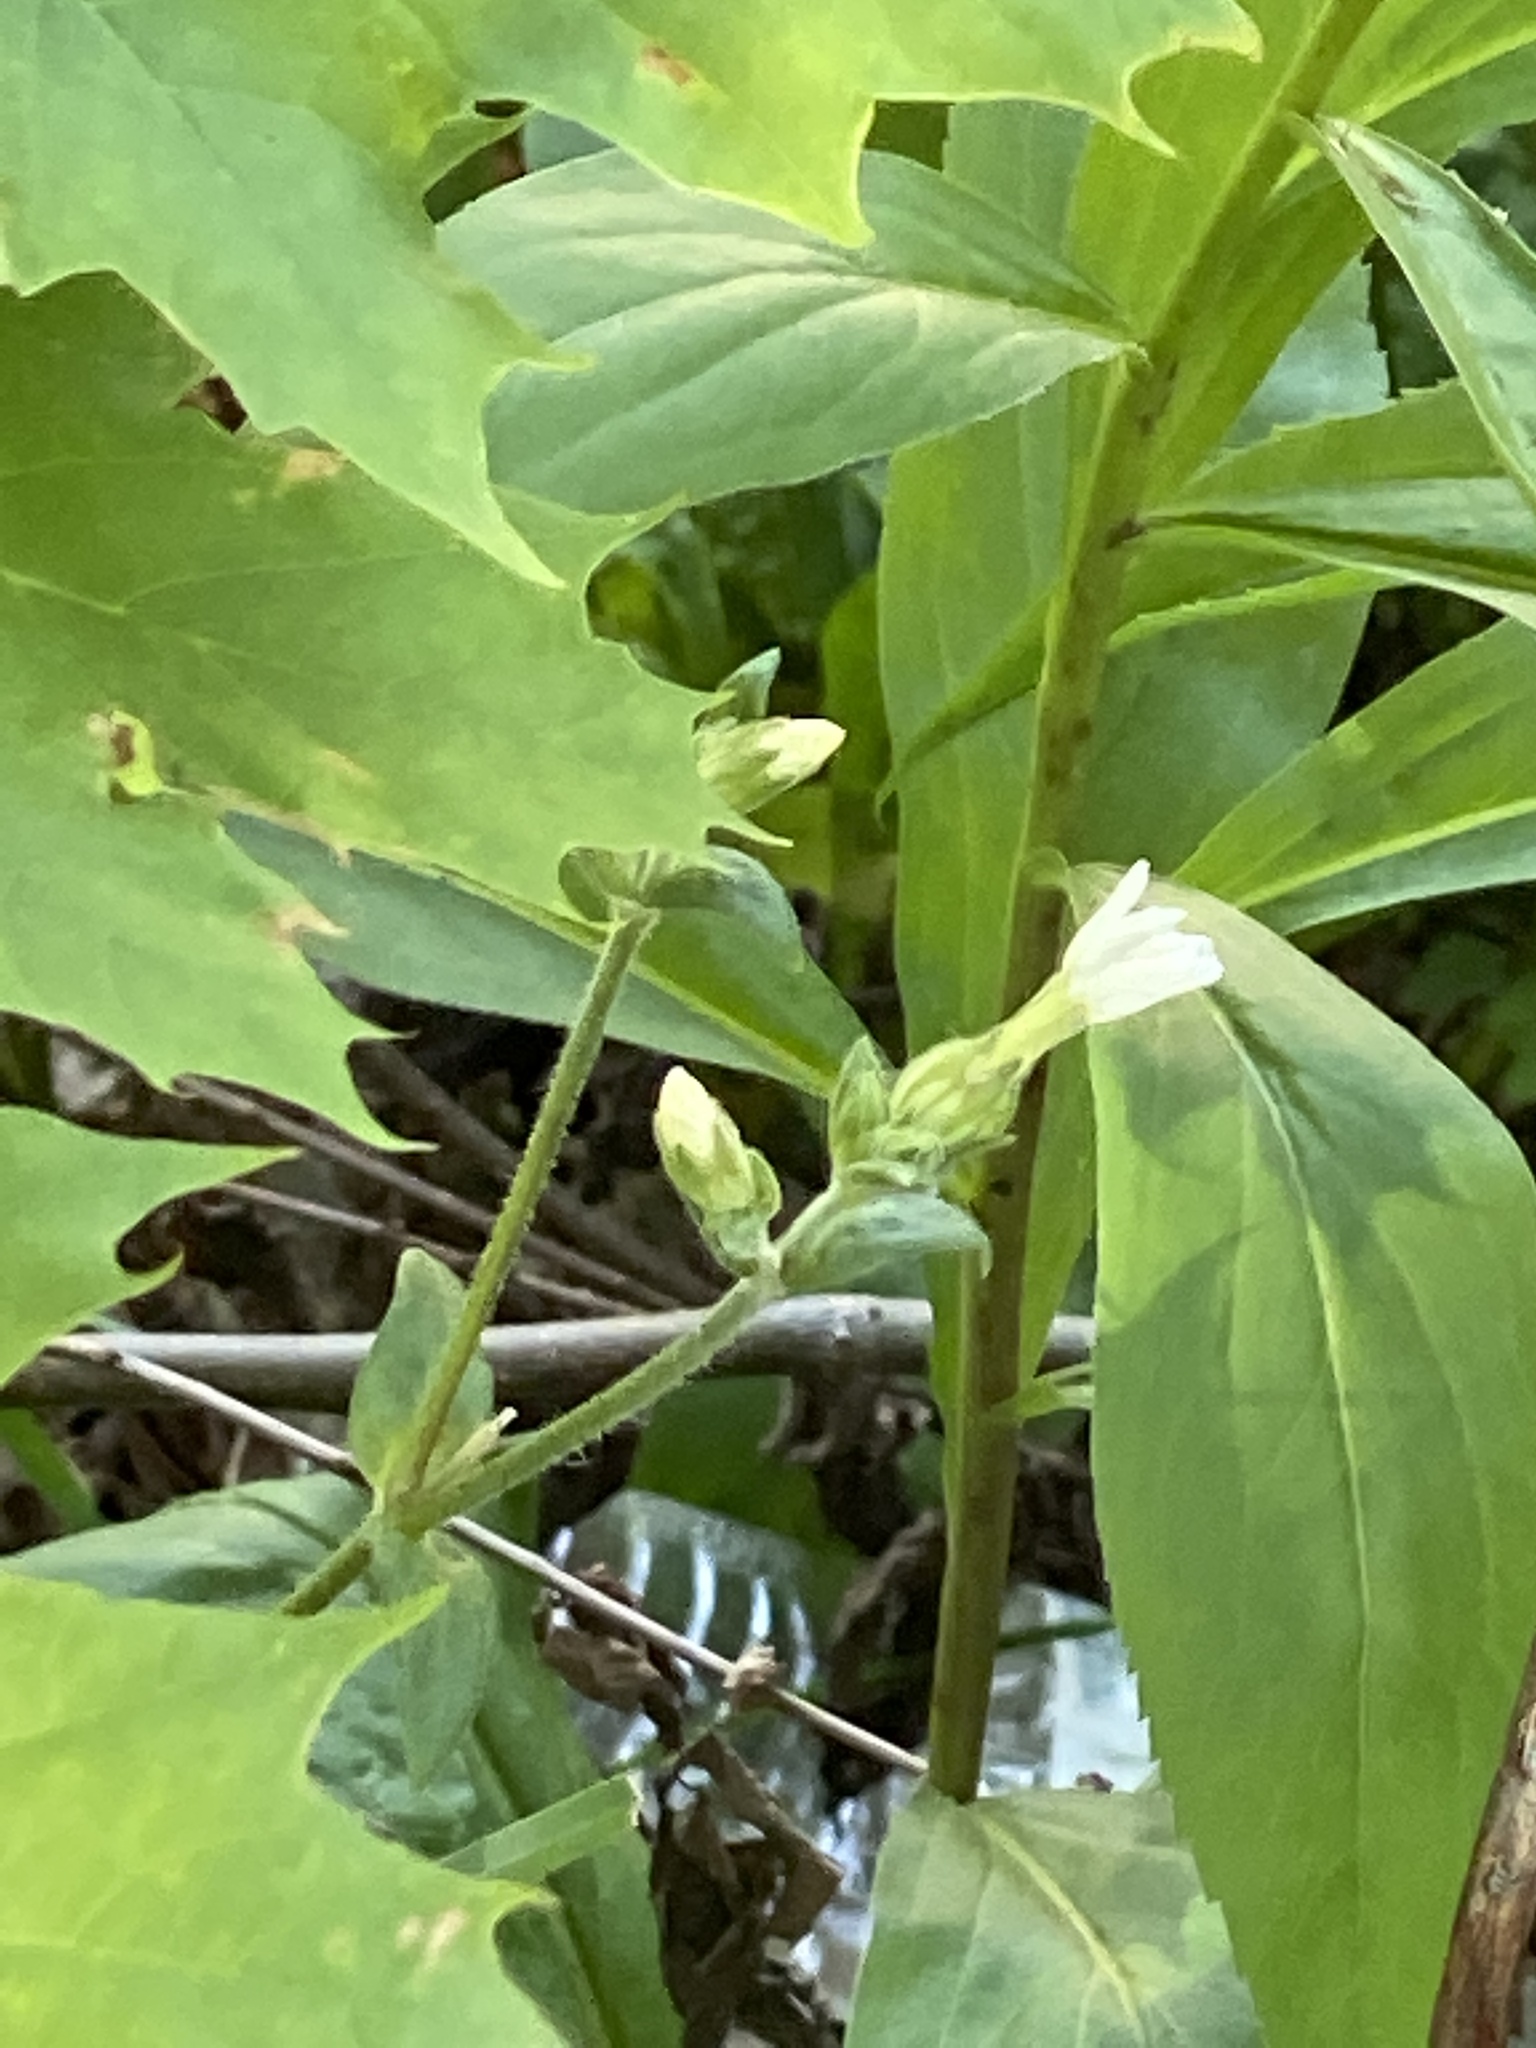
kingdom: Plantae
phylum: Tracheophyta
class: Magnoliopsida
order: Caryophyllales
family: Caryophyllaceae
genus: Silene
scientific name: Silene latifolia
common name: White campion
